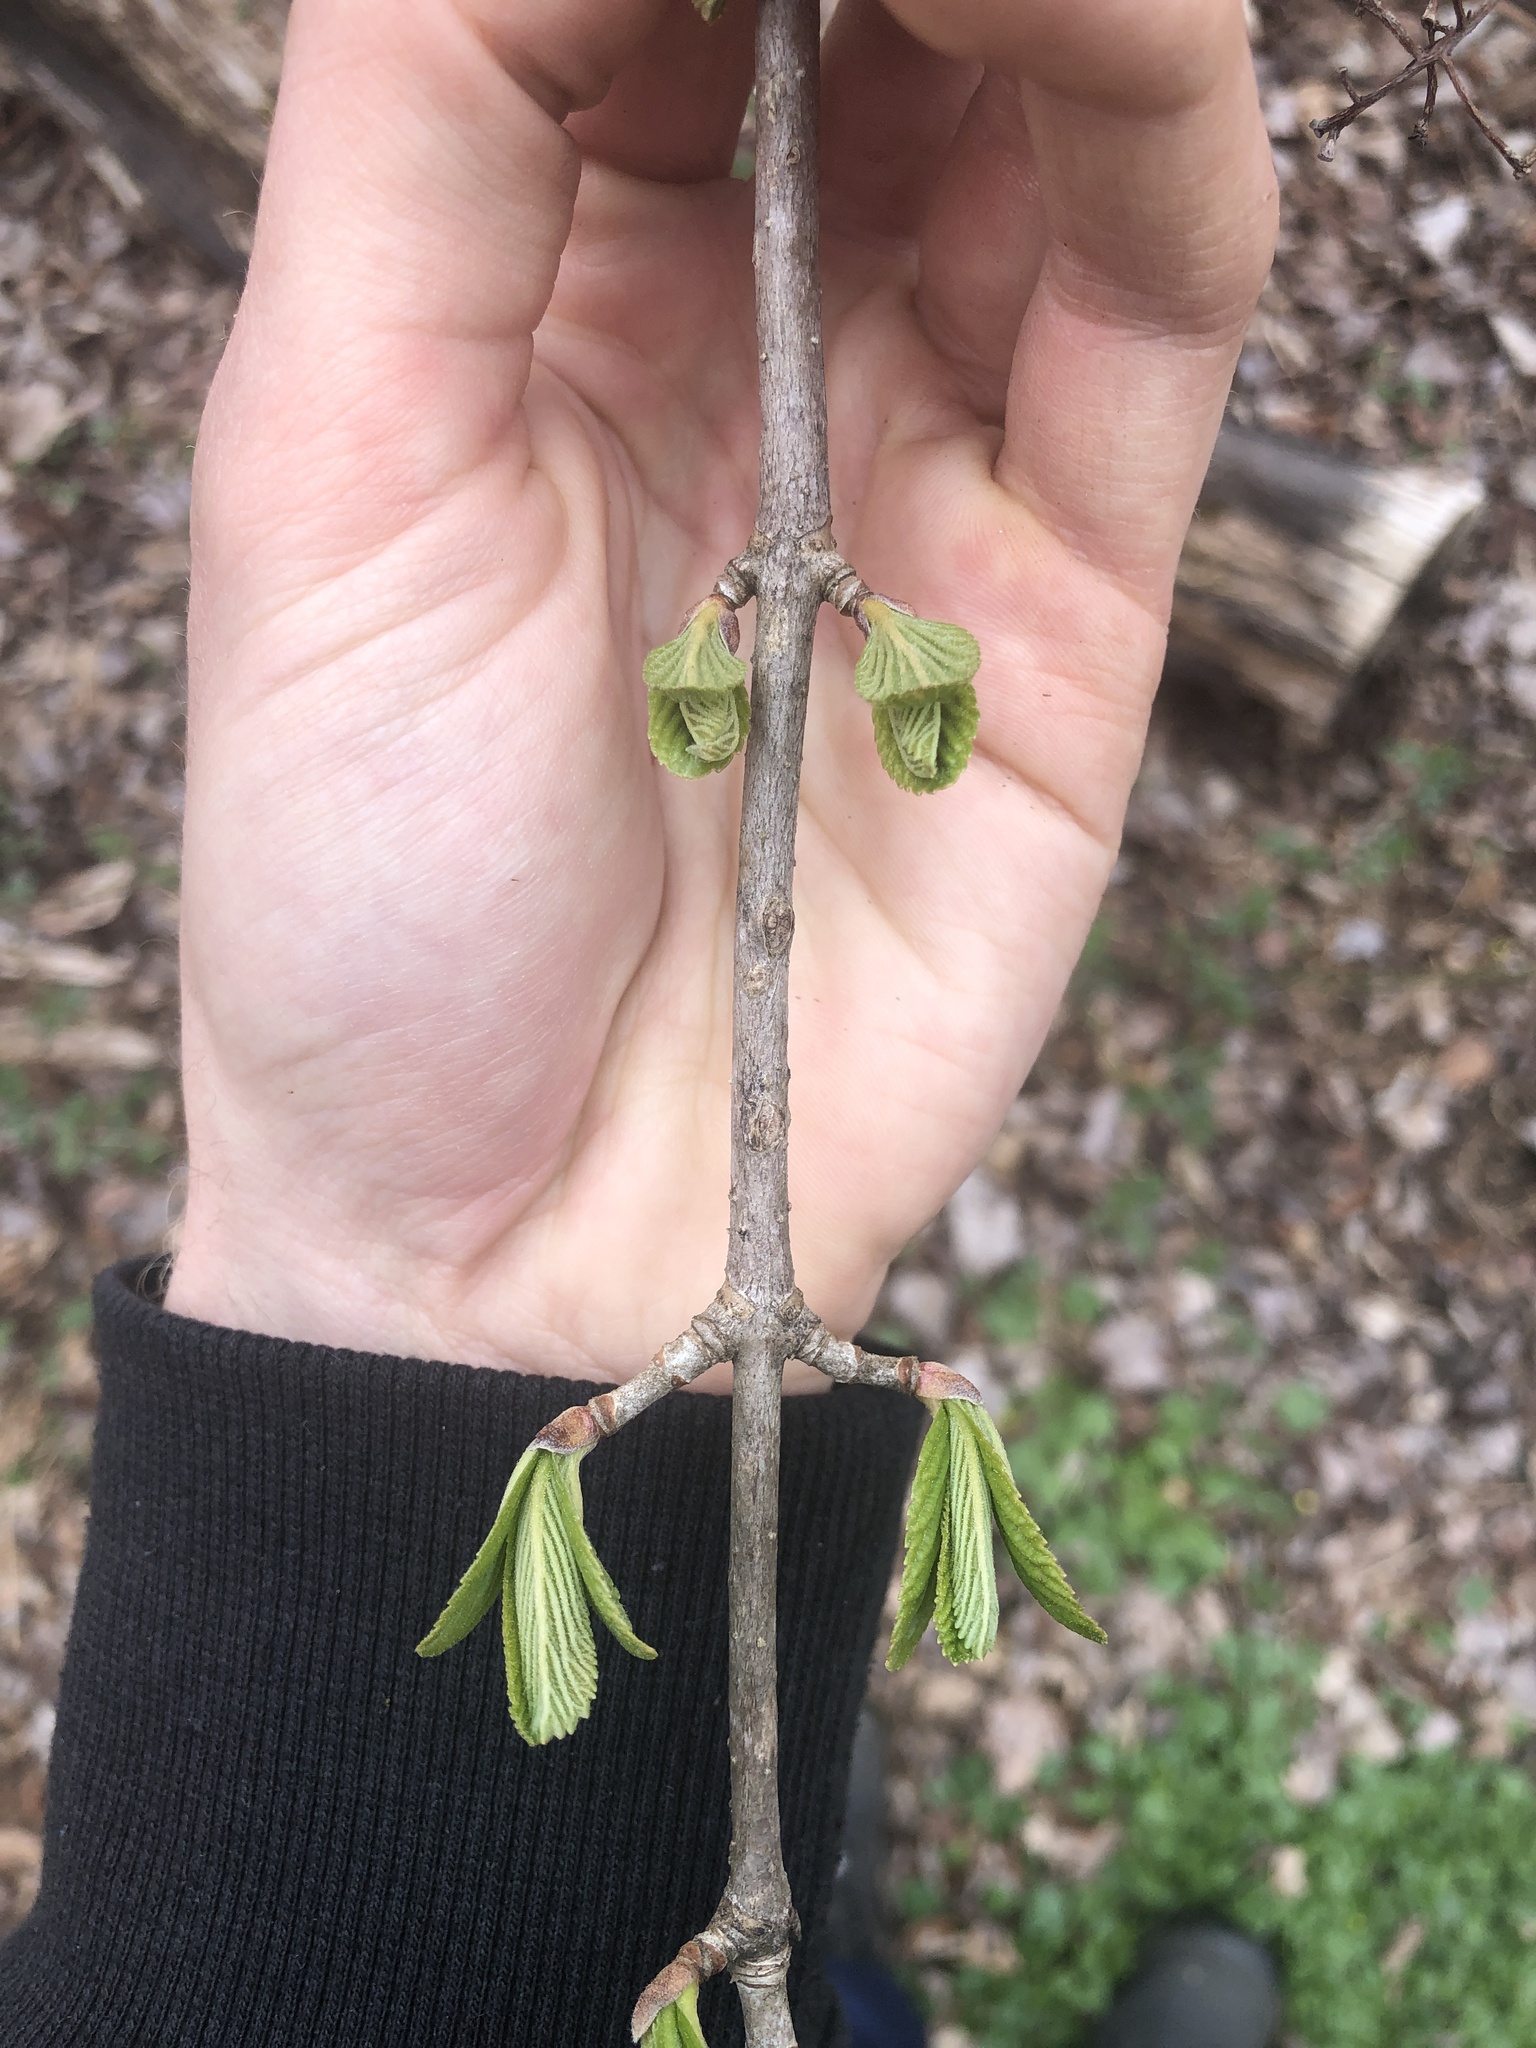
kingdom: Plantae
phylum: Tracheophyta
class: Magnoliopsida
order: Dipsacales
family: Viburnaceae
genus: Viburnum
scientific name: Viburnum sieboldii
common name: Siebold's arrowwood
